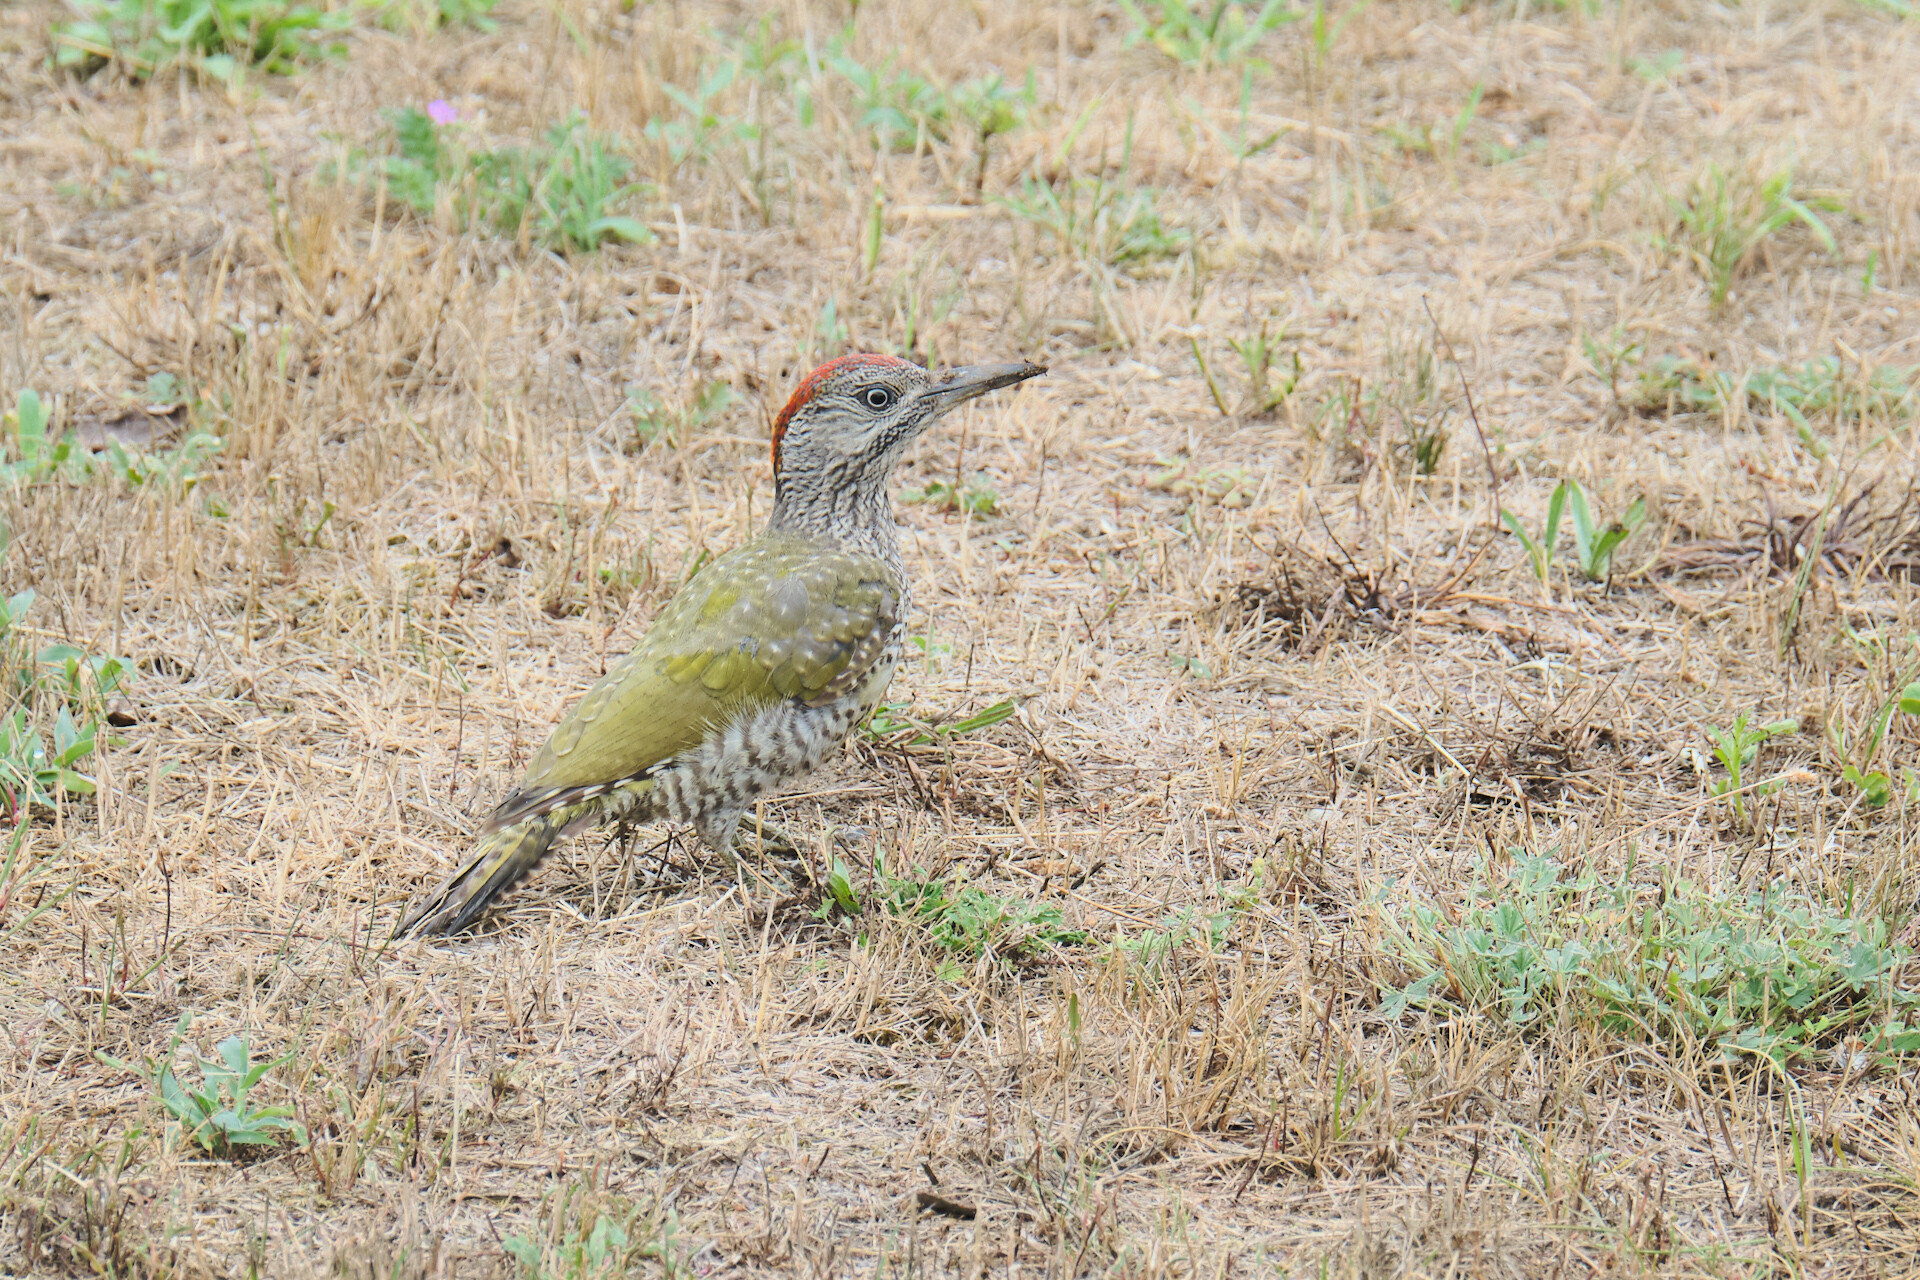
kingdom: Animalia
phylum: Chordata
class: Aves
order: Piciformes
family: Picidae
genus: Picus
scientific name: Picus viridis
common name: European green woodpecker
